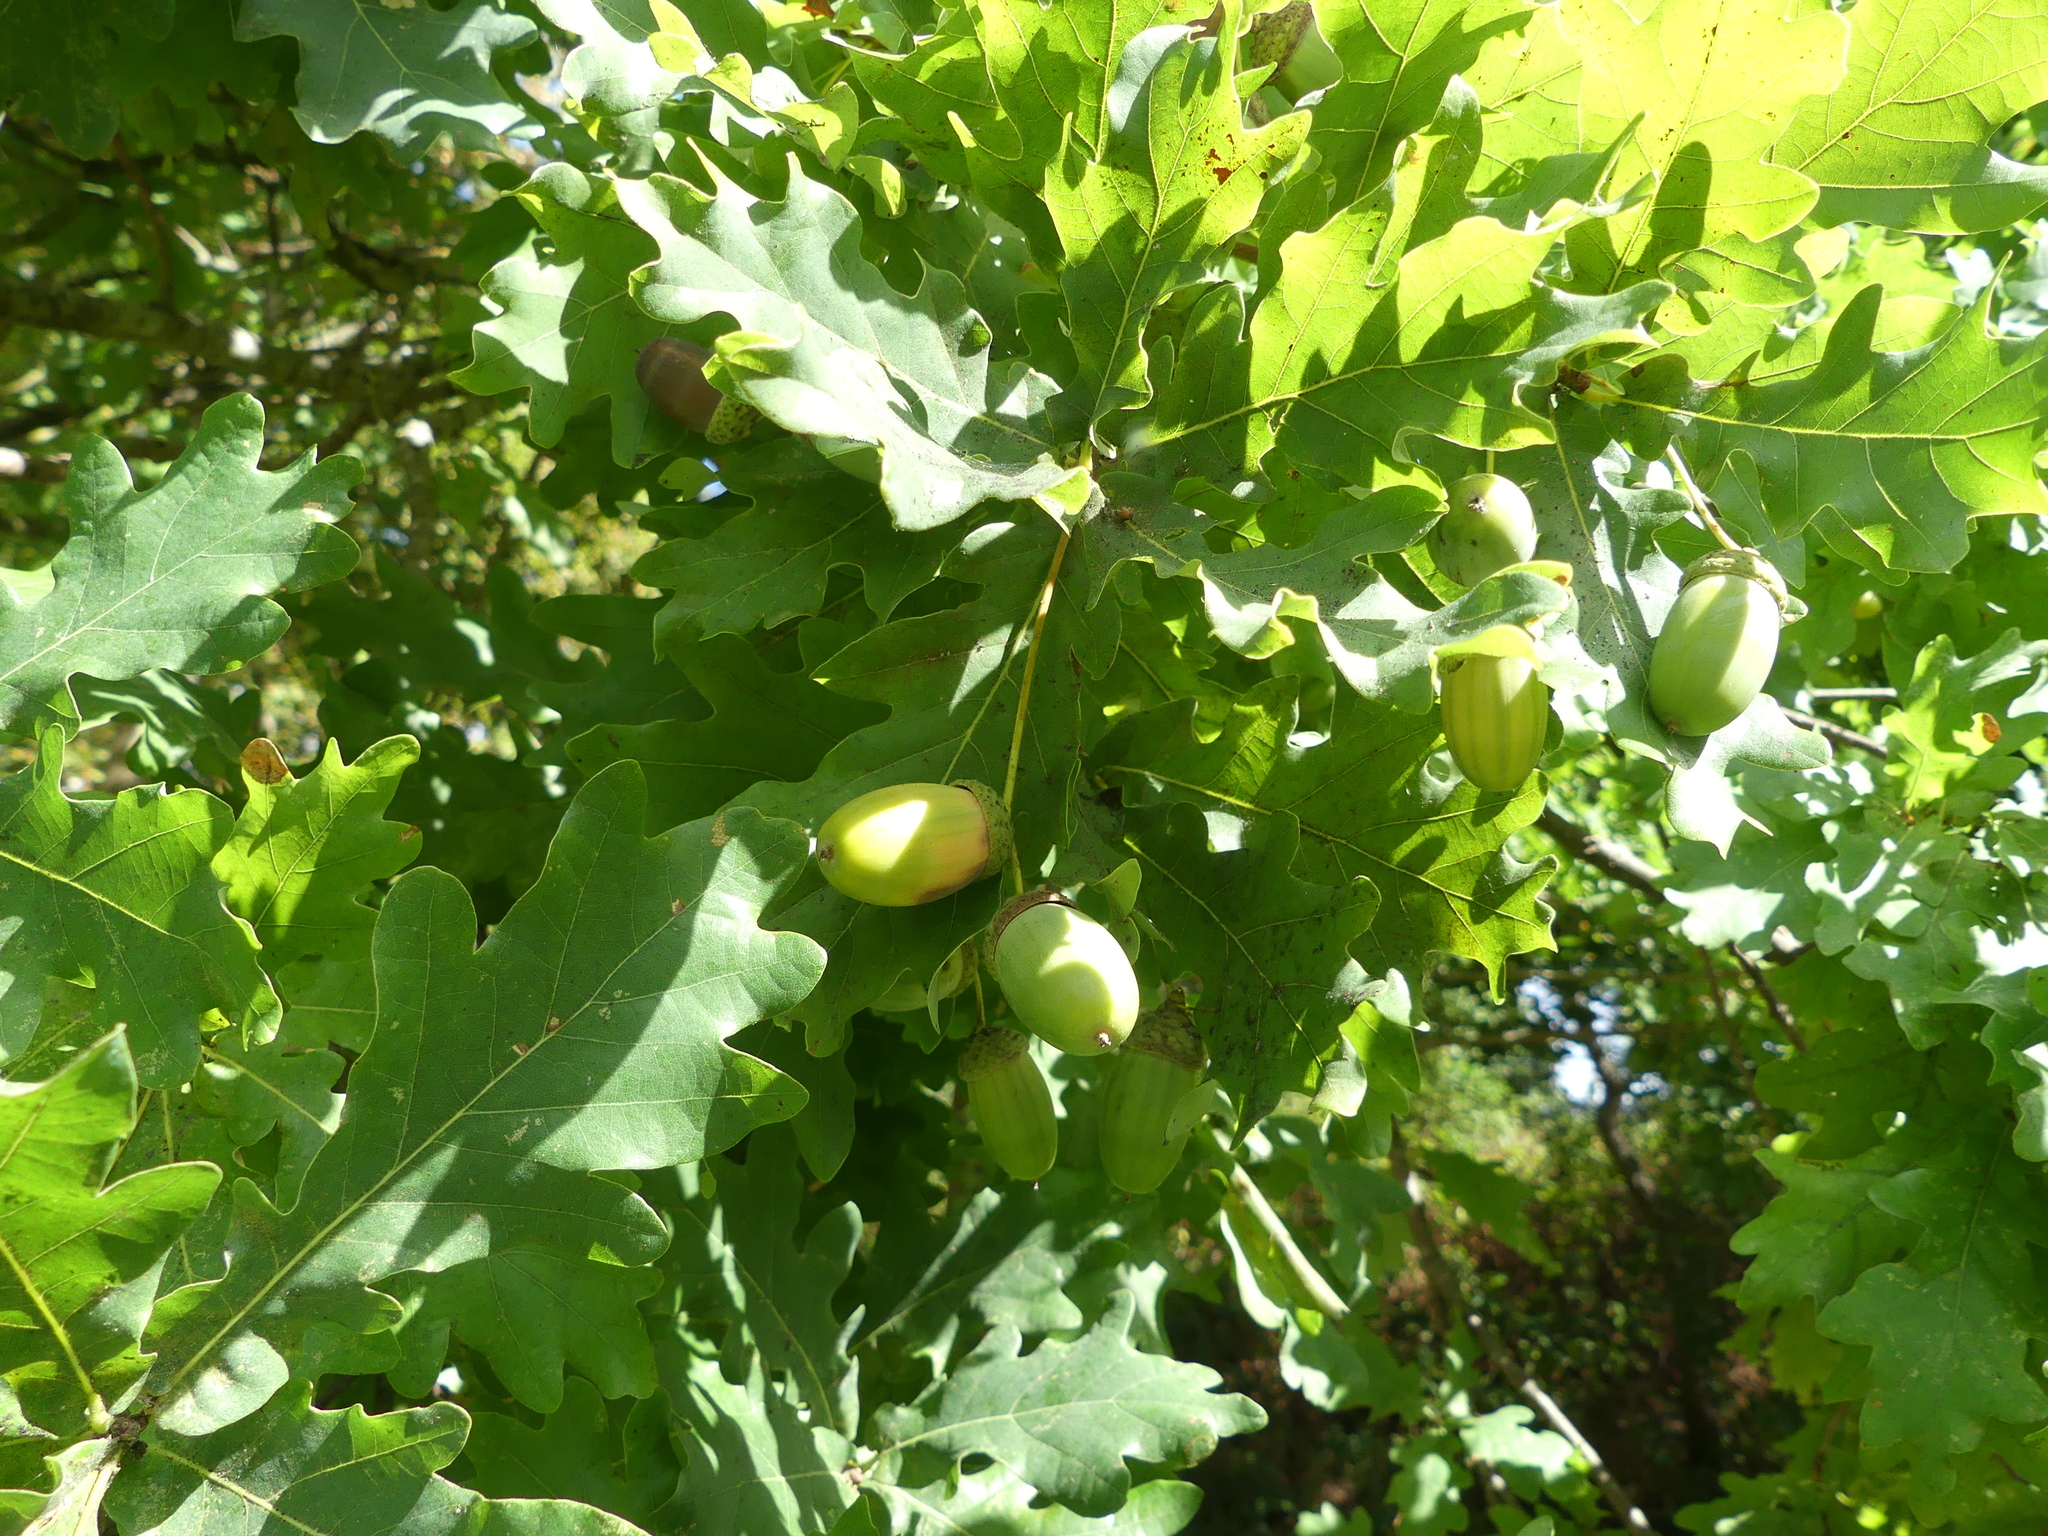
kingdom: Plantae
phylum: Tracheophyta
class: Magnoliopsida
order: Fagales
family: Fagaceae
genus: Quercus
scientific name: Quercus robur
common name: Pedunculate oak
